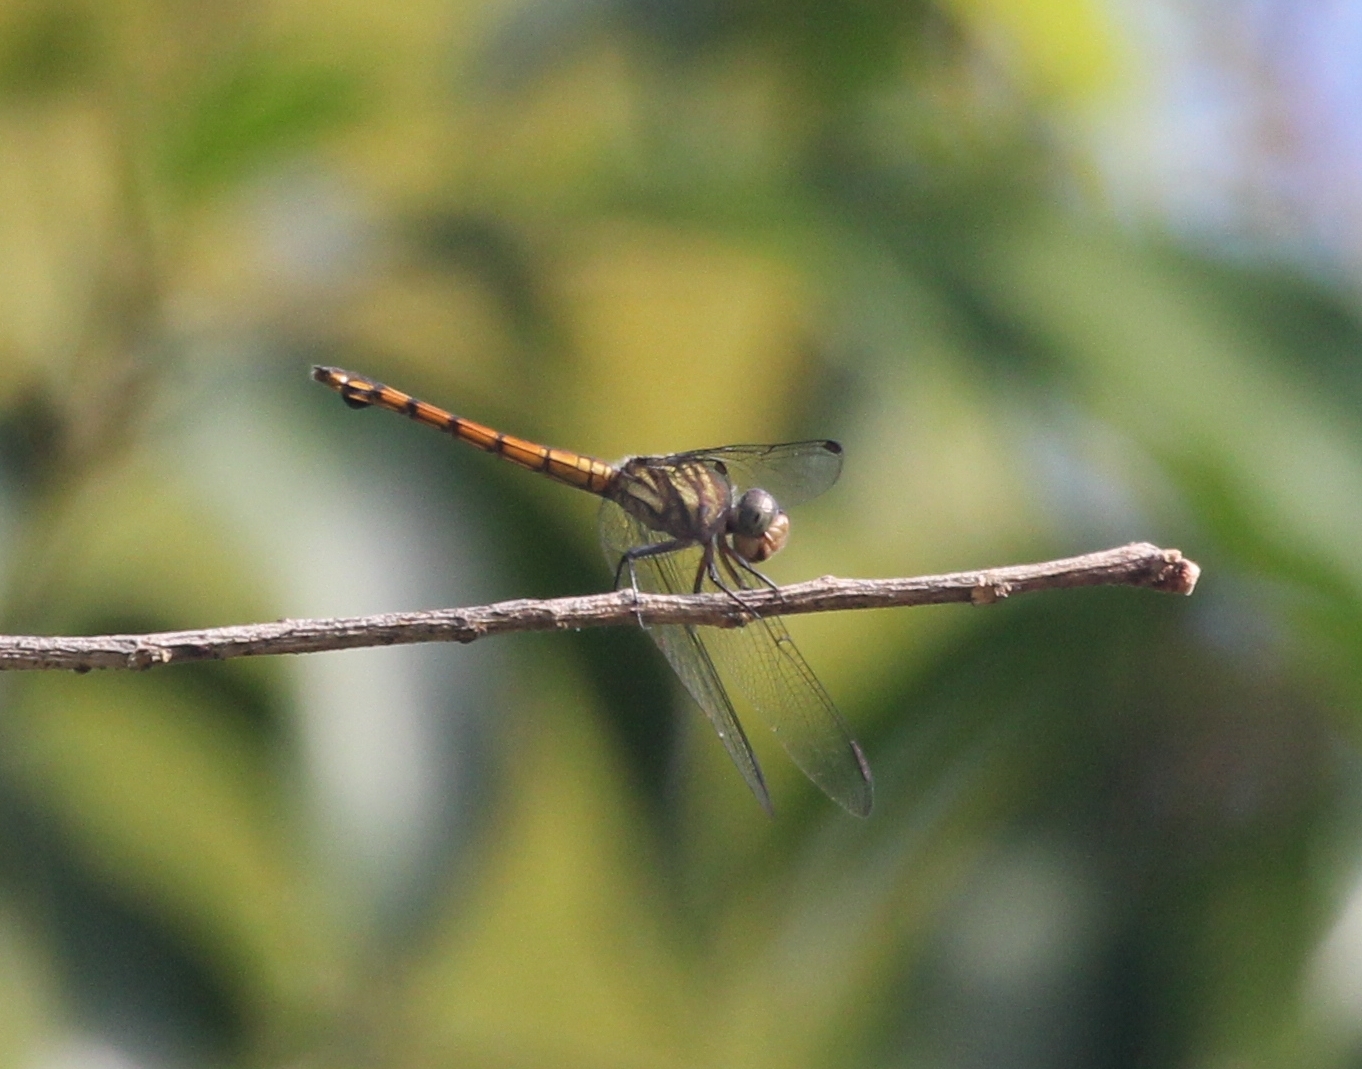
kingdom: Animalia
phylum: Arthropoda
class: Insecta
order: Odonata
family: Libellulidae
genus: Potamarcha
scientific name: Potamarcha congener
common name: Blue chaser
